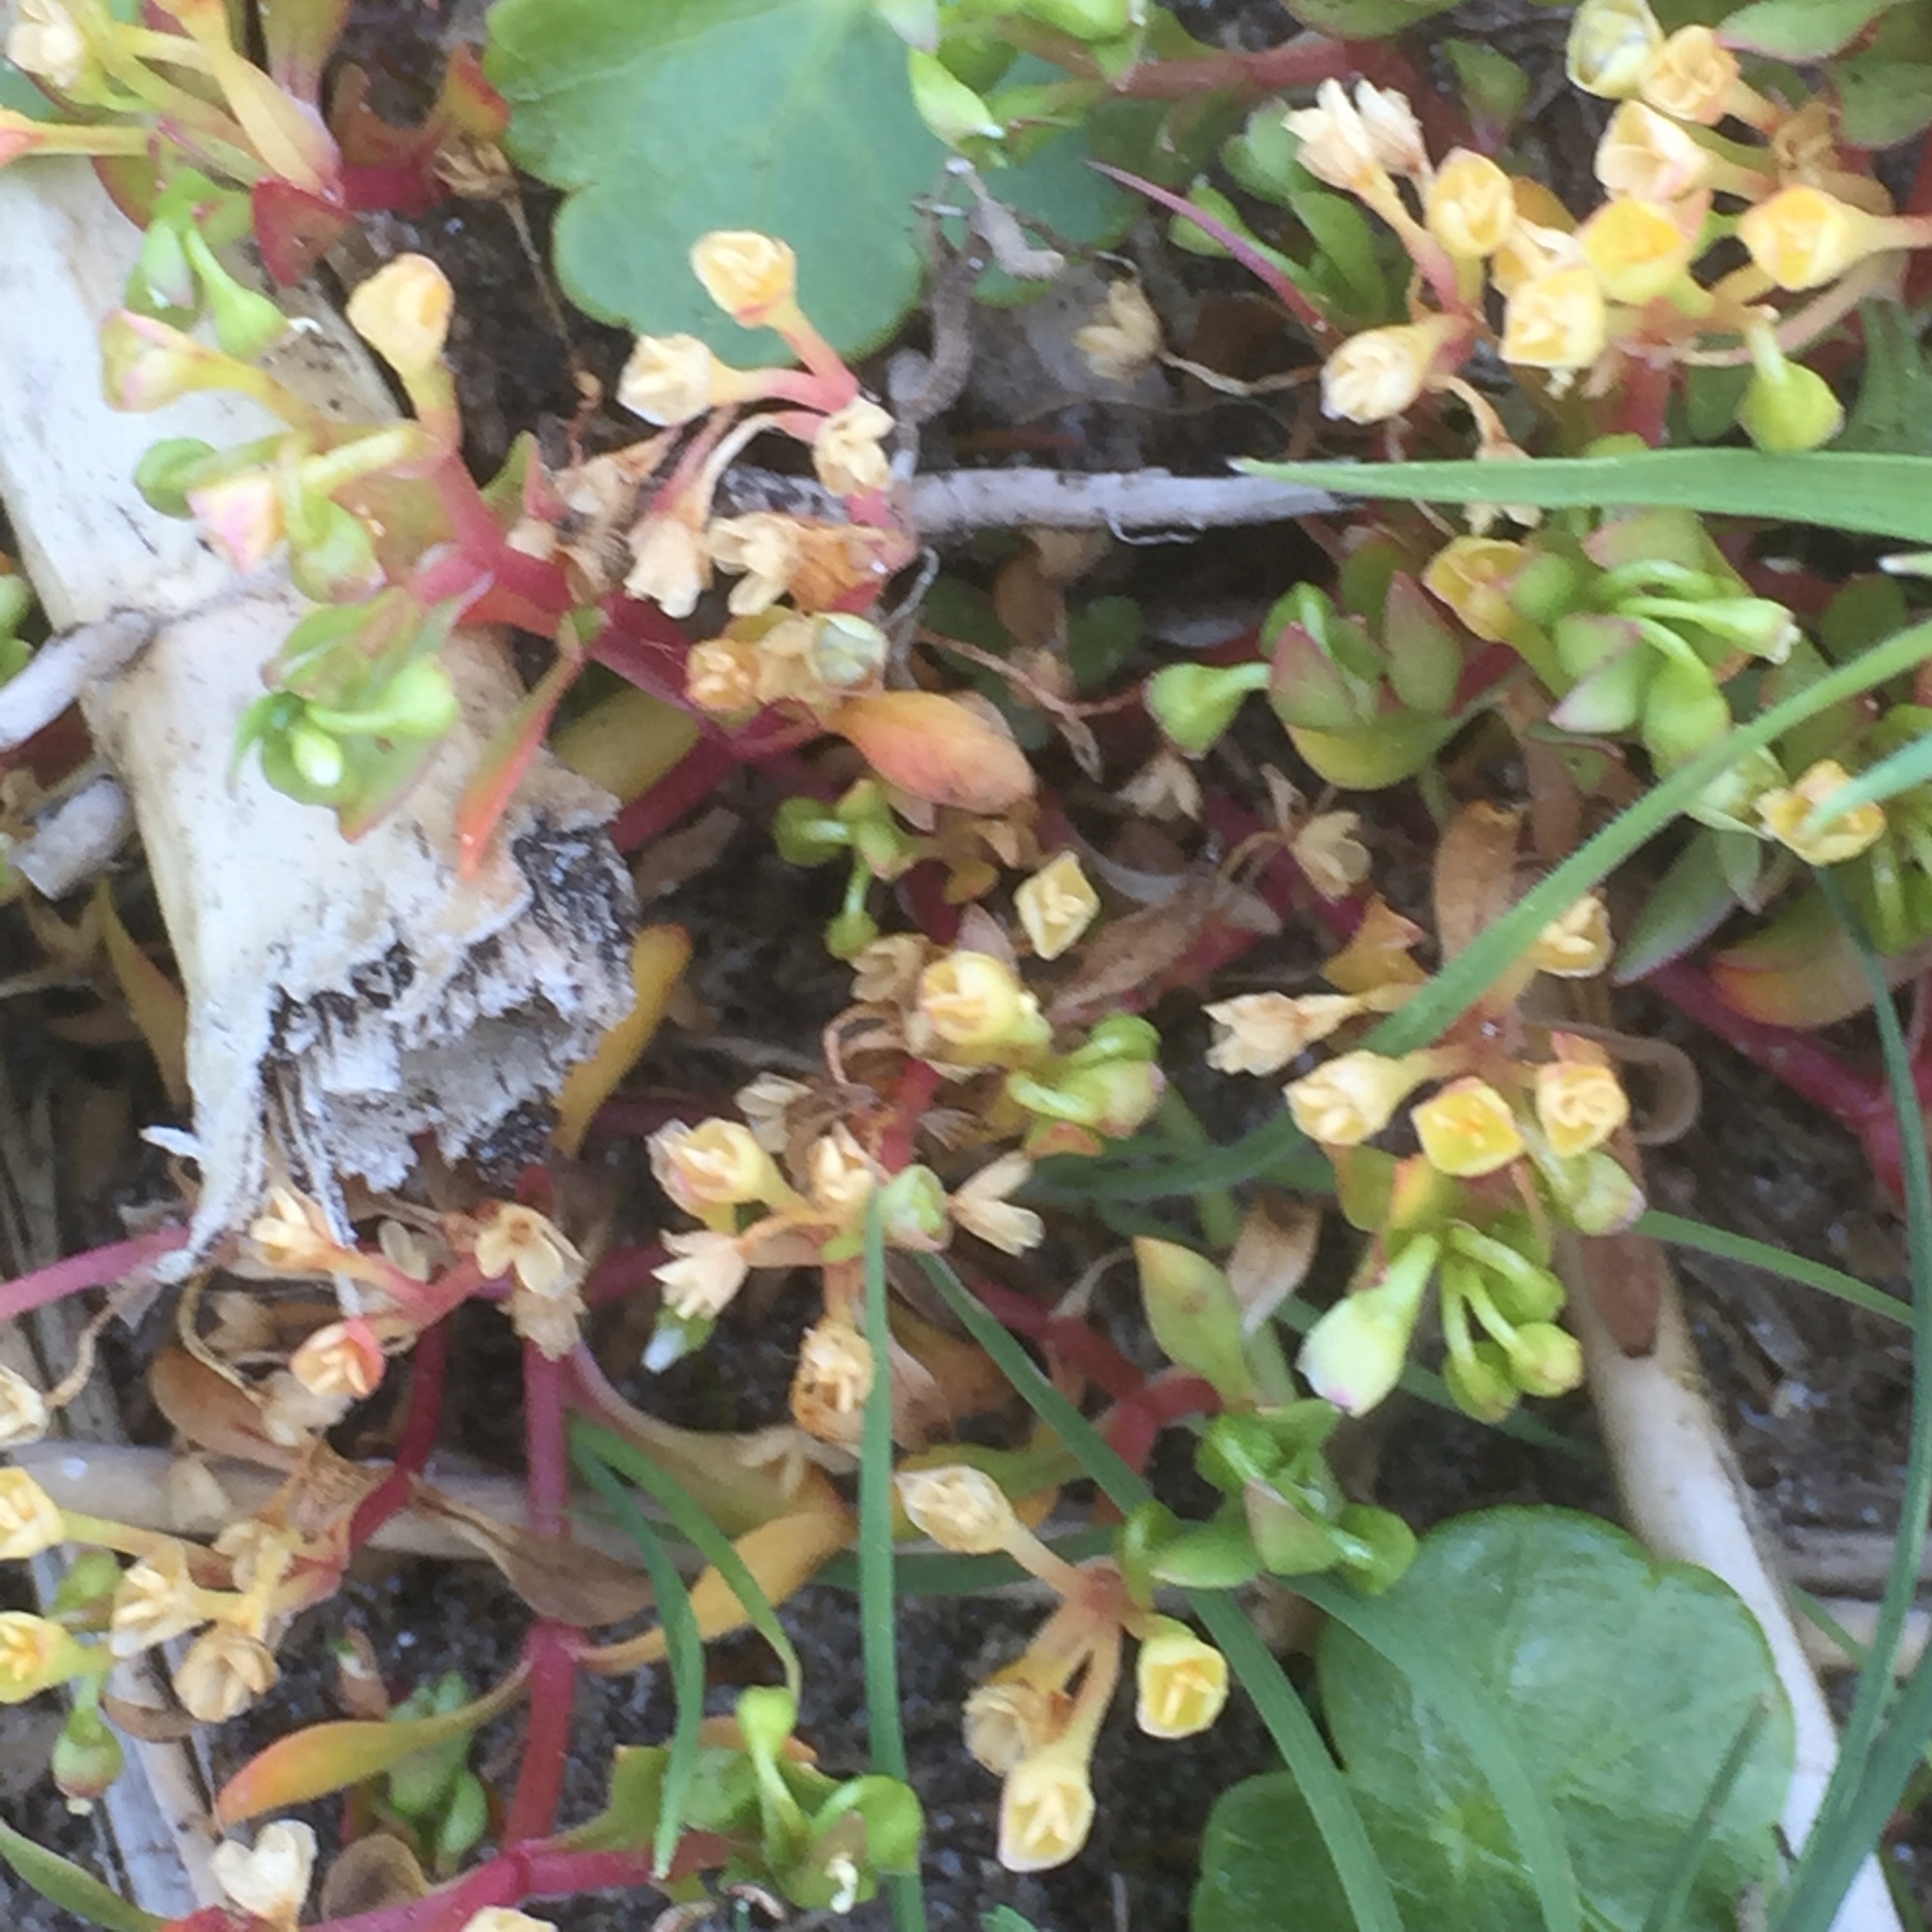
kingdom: Plantae
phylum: Tracheophyta
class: Magnoliopsida
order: Caryophyllales
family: Montiaceae
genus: Montia
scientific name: Montia fontana
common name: Blinks
